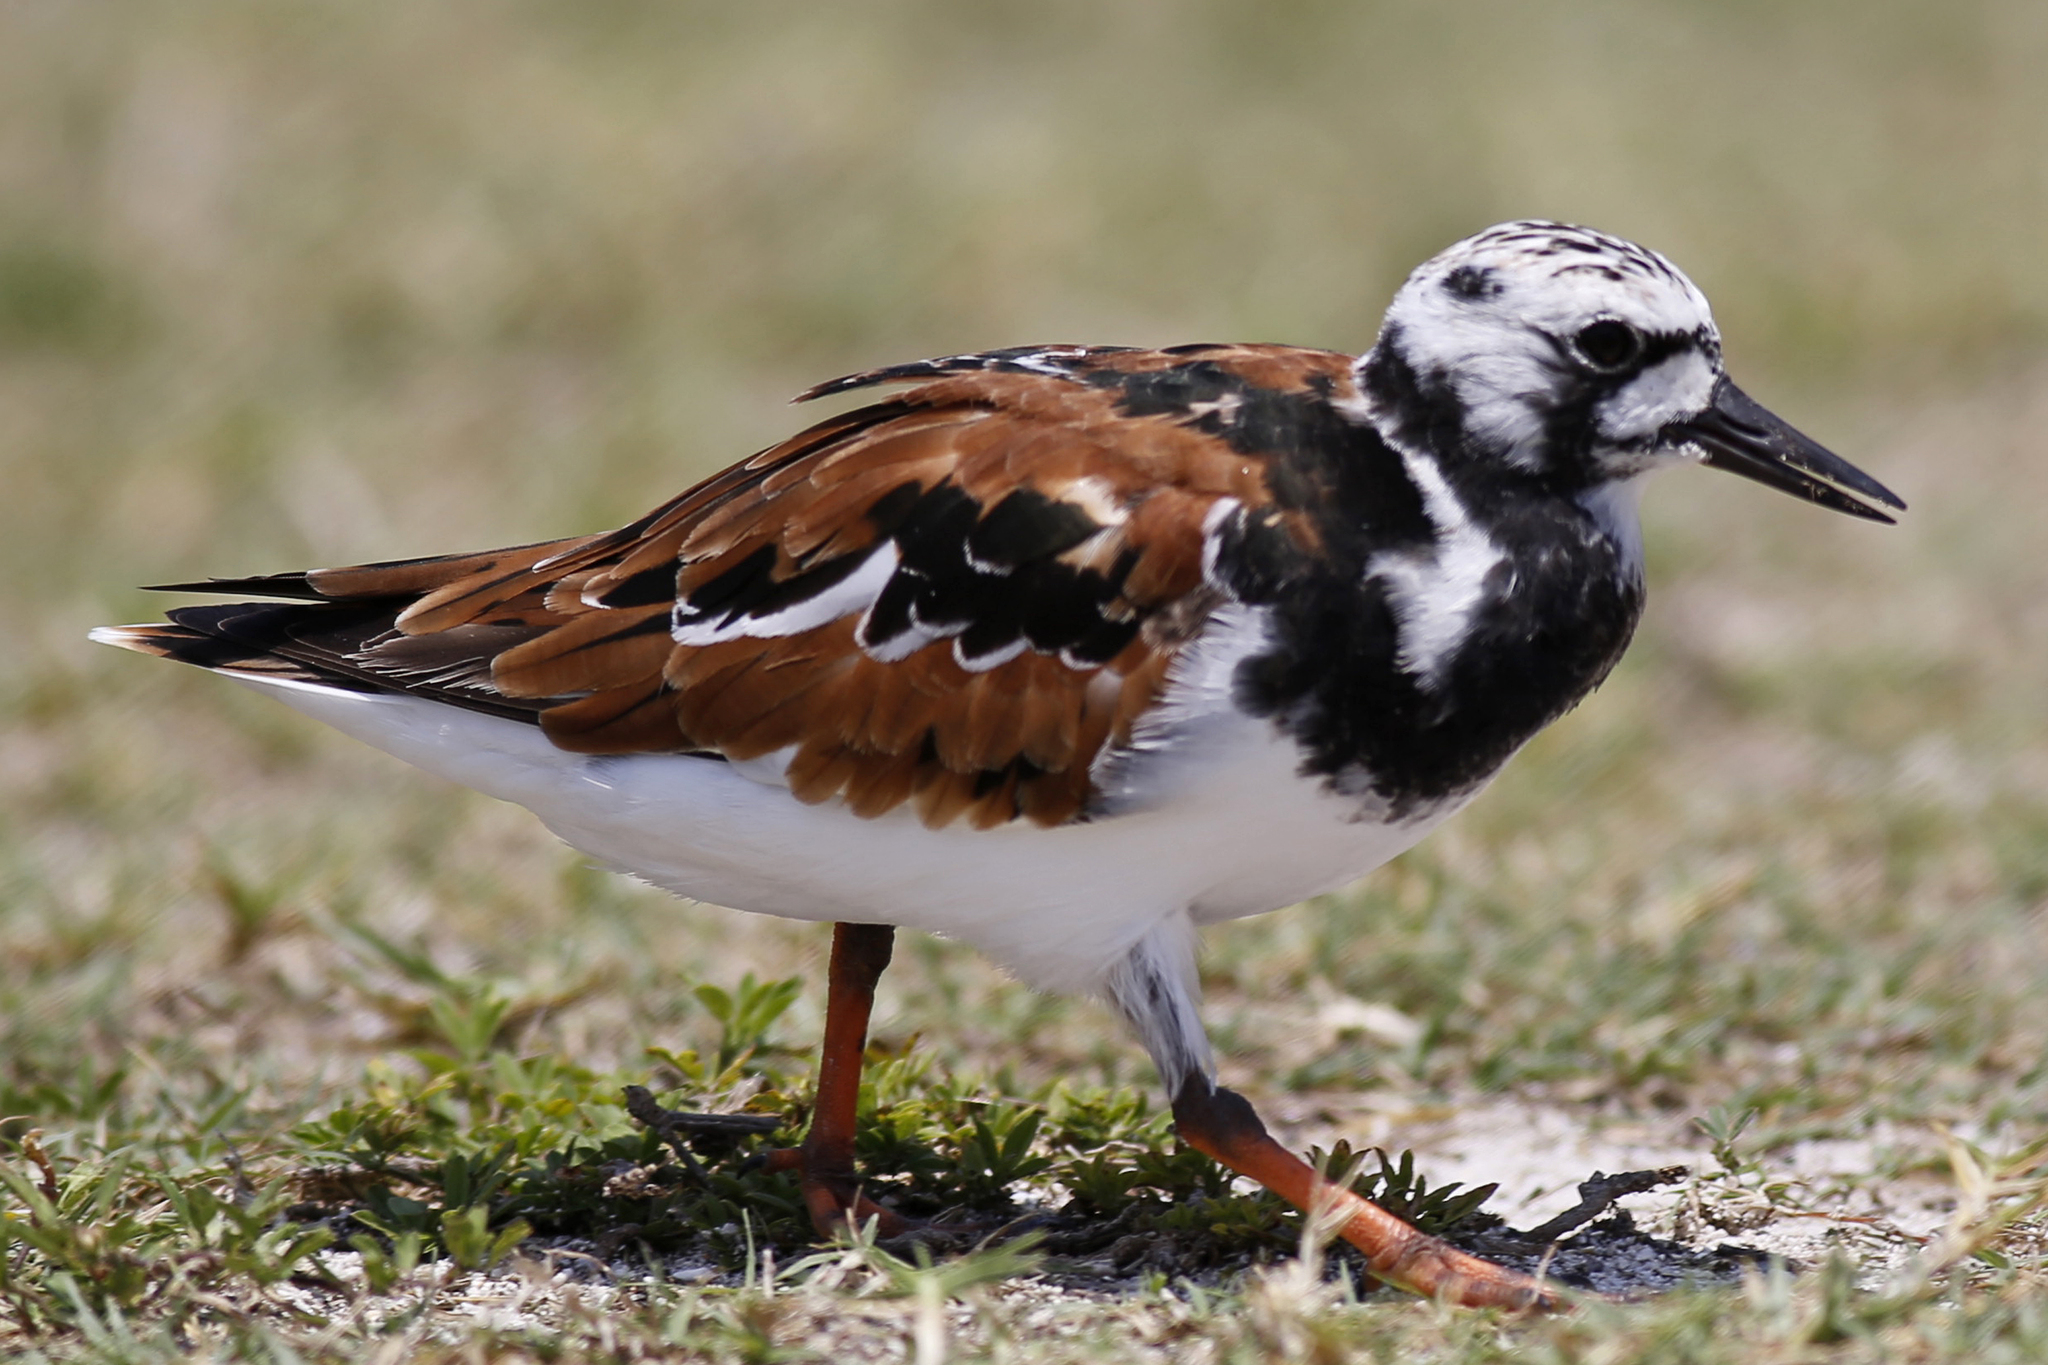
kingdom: Animalia
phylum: Chordata
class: Aves
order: Charadriiformes
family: Scolopacidae
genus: Arenaria
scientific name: Arenaria interpres
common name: Ruddy turnstone
